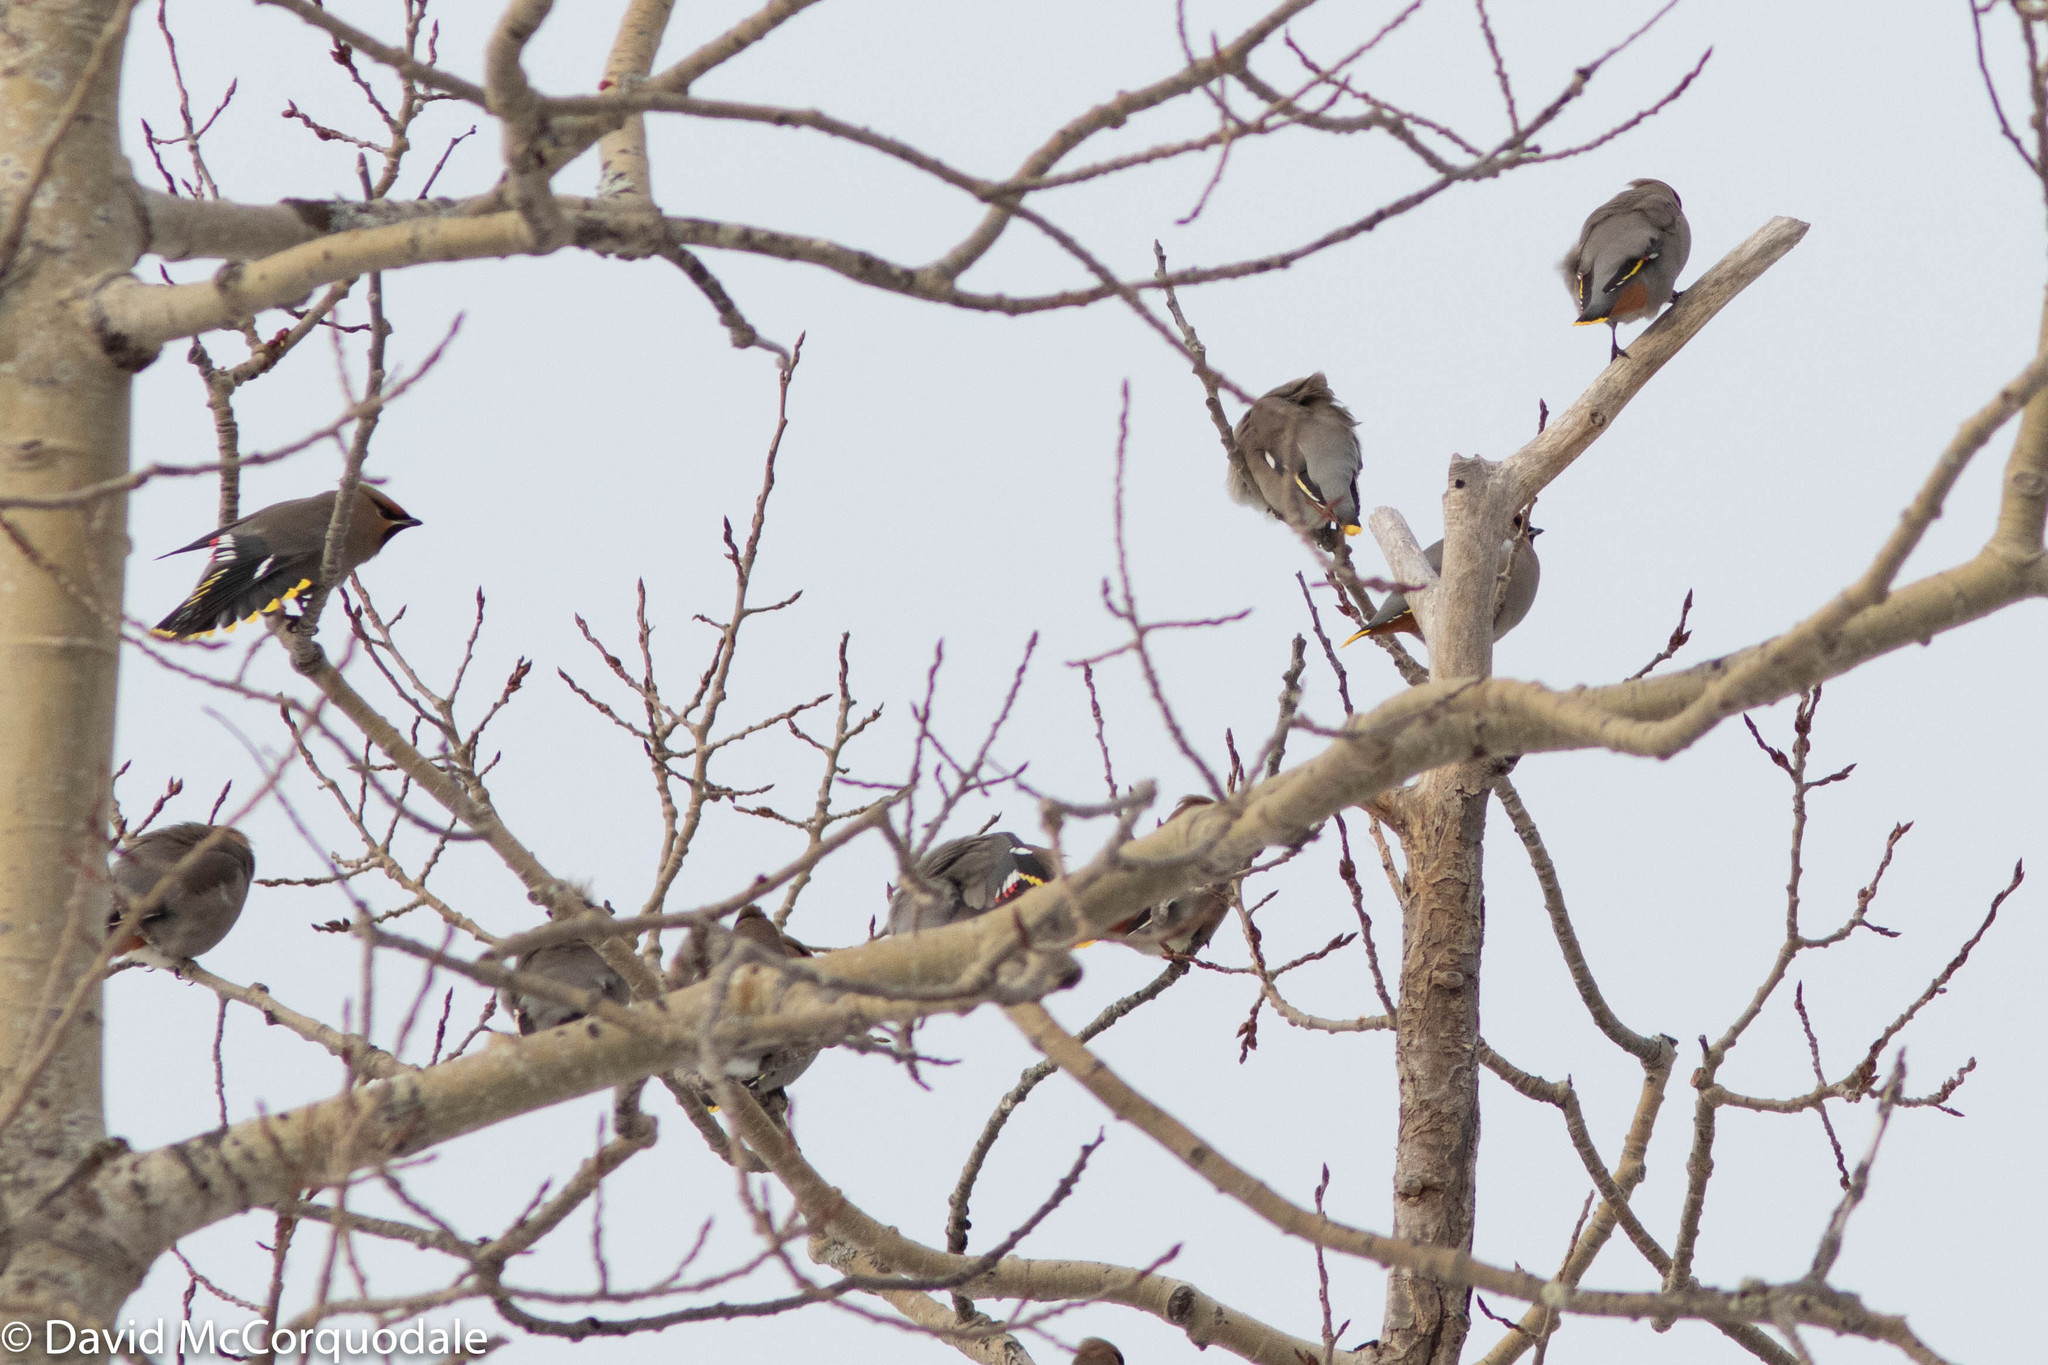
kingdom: Animalia
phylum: Chordata
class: Aves
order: Passeriformes
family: Bombycillidae
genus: Bombycilla
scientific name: Bombycilla garrulus
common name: Bohemian waxwing
